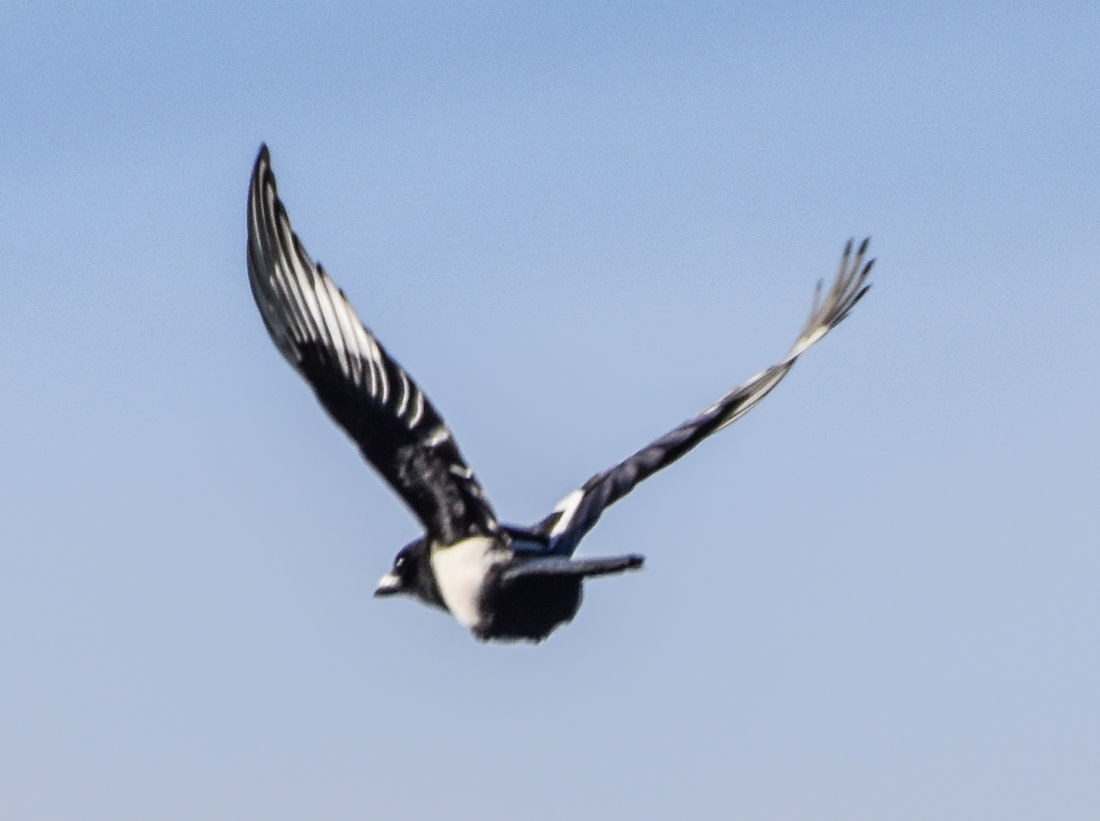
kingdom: Animalia
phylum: Chordata
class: Aves
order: Passeriformes
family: Corvidae
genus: Pica
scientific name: Pica pica
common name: Eurasian magpie
